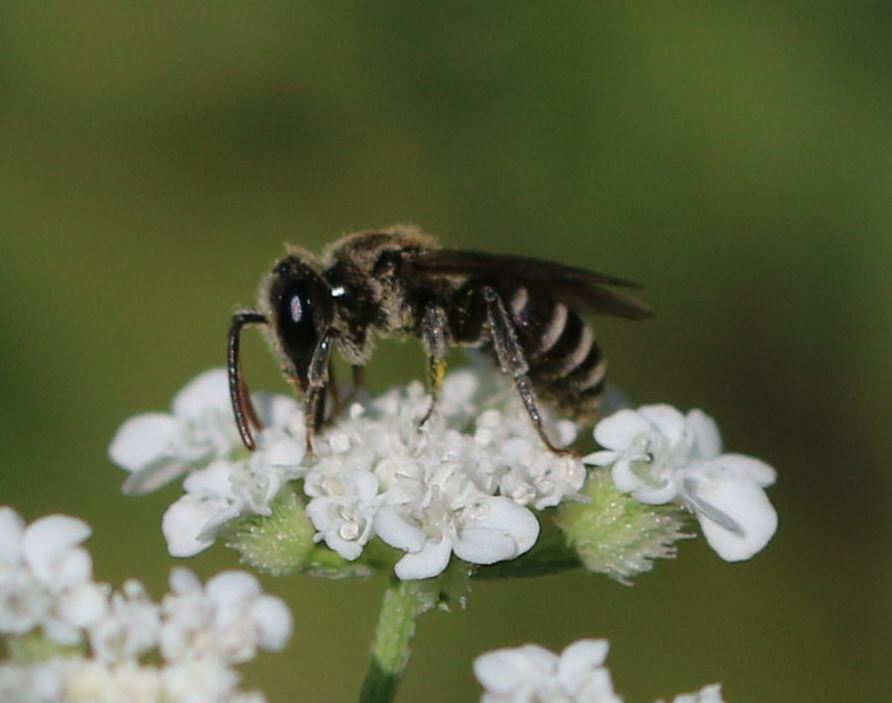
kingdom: Animalia
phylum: Arthropoda
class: Insecta
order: Hymenoptera
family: Andrenidae
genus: Andrena
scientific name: Andrena colletiformis
